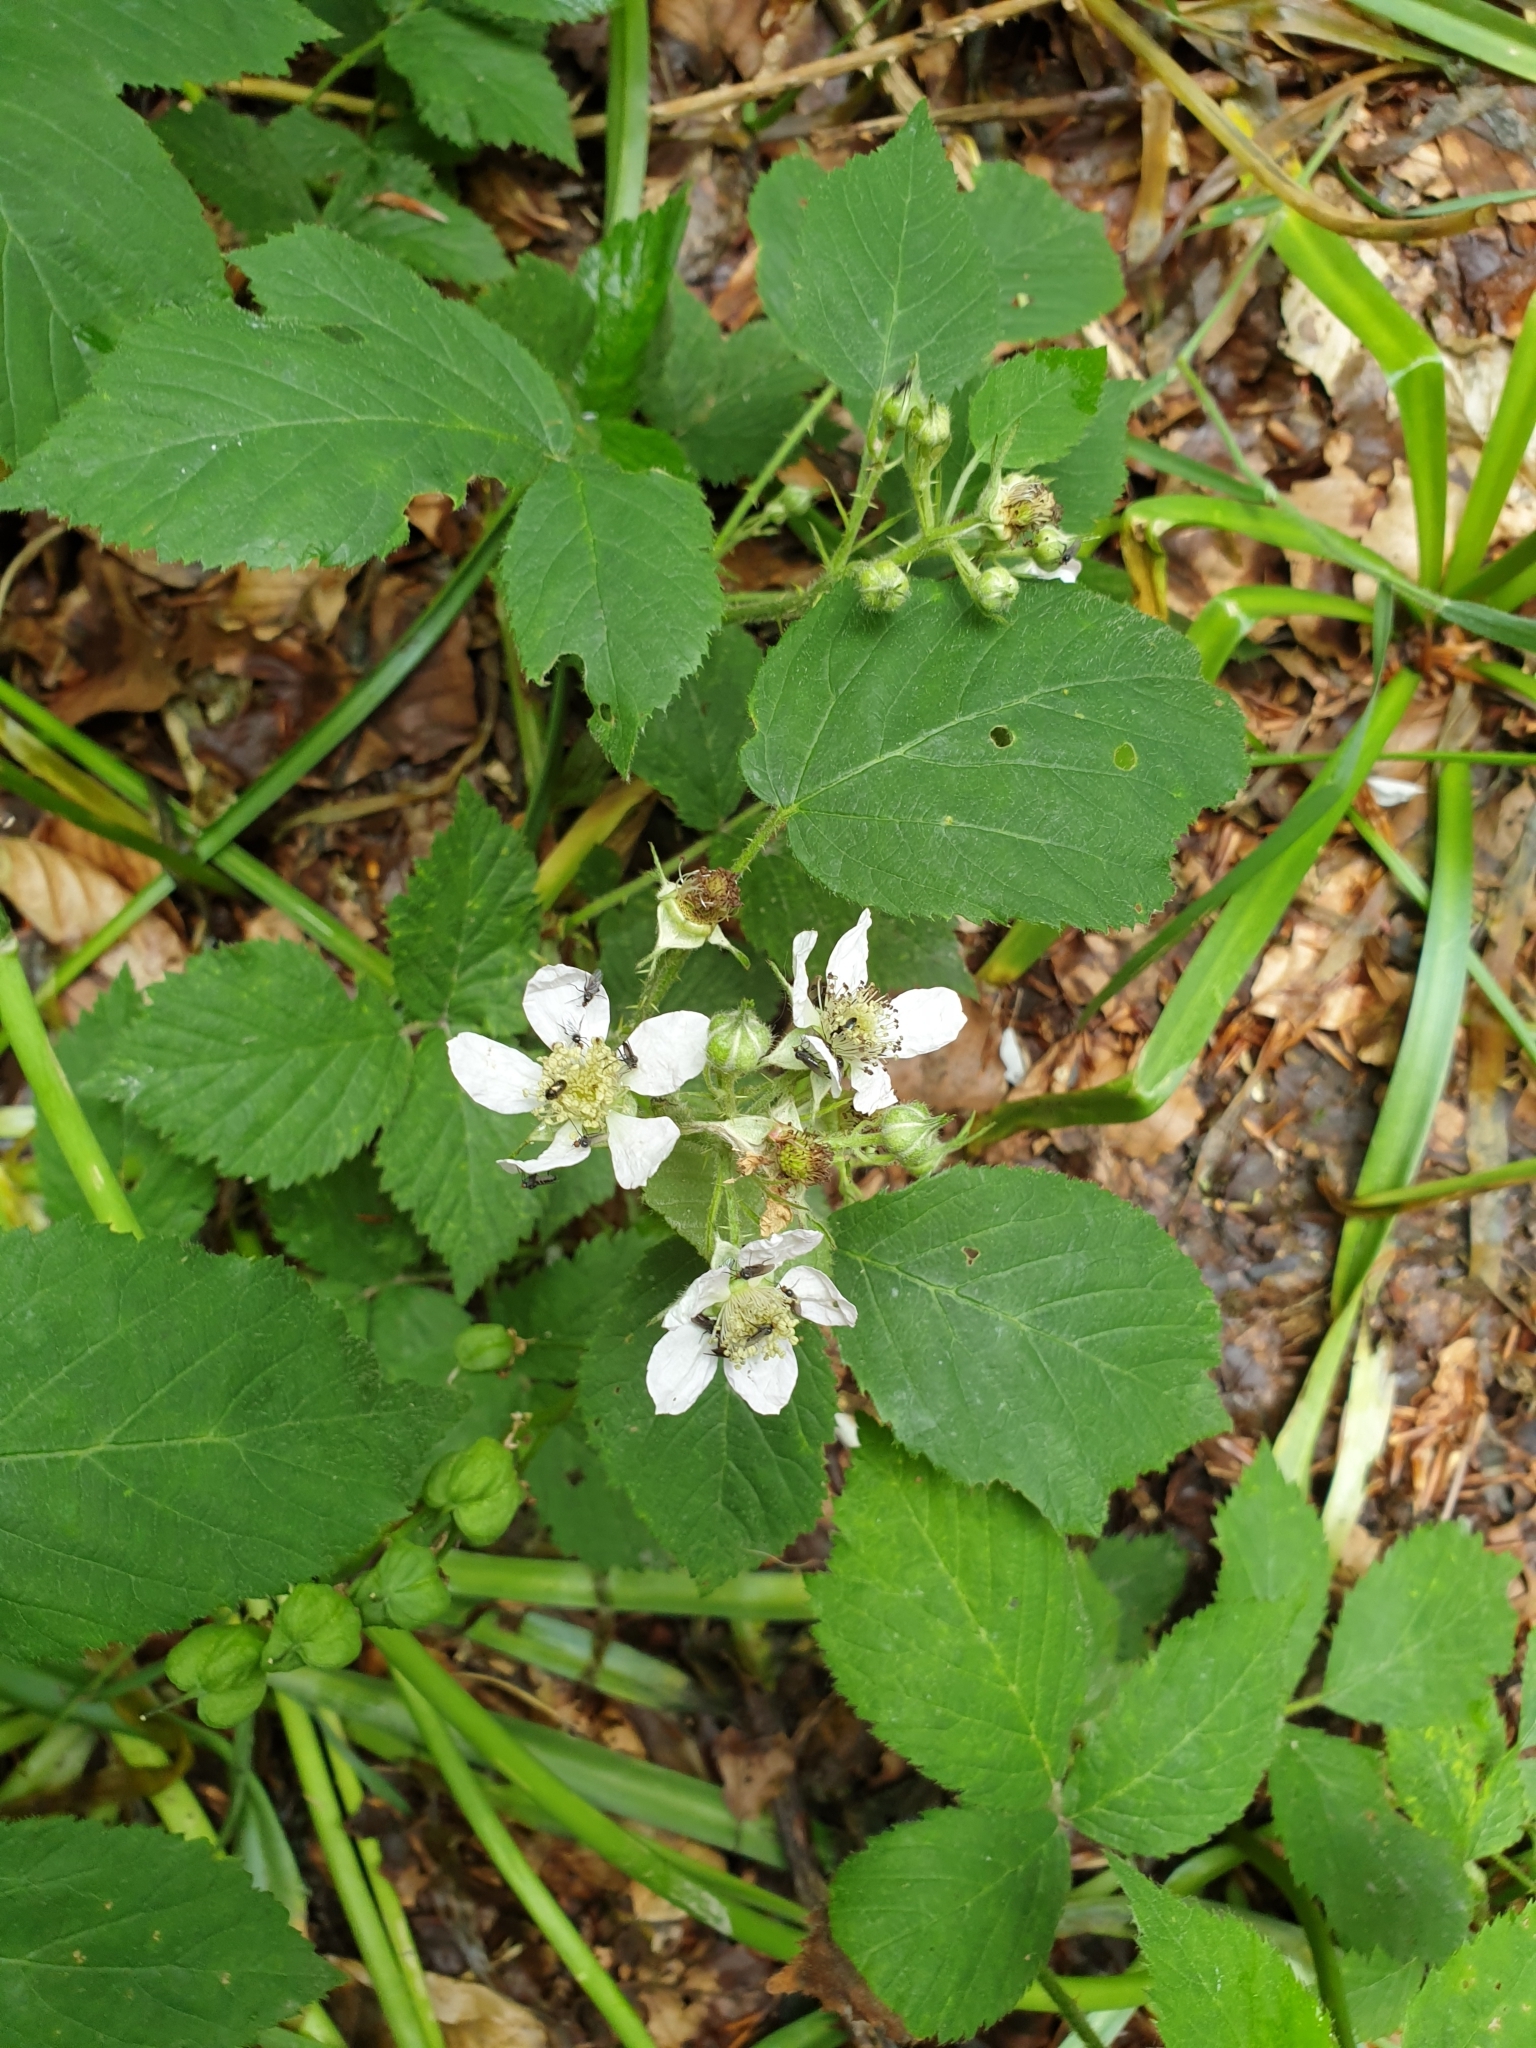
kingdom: Plantae
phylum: Tracheophyta
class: Magnoliopsida
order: Rosales
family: Rosaceae
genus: Rubus
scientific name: Rubus fruticosus
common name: Blackberry, bramble
